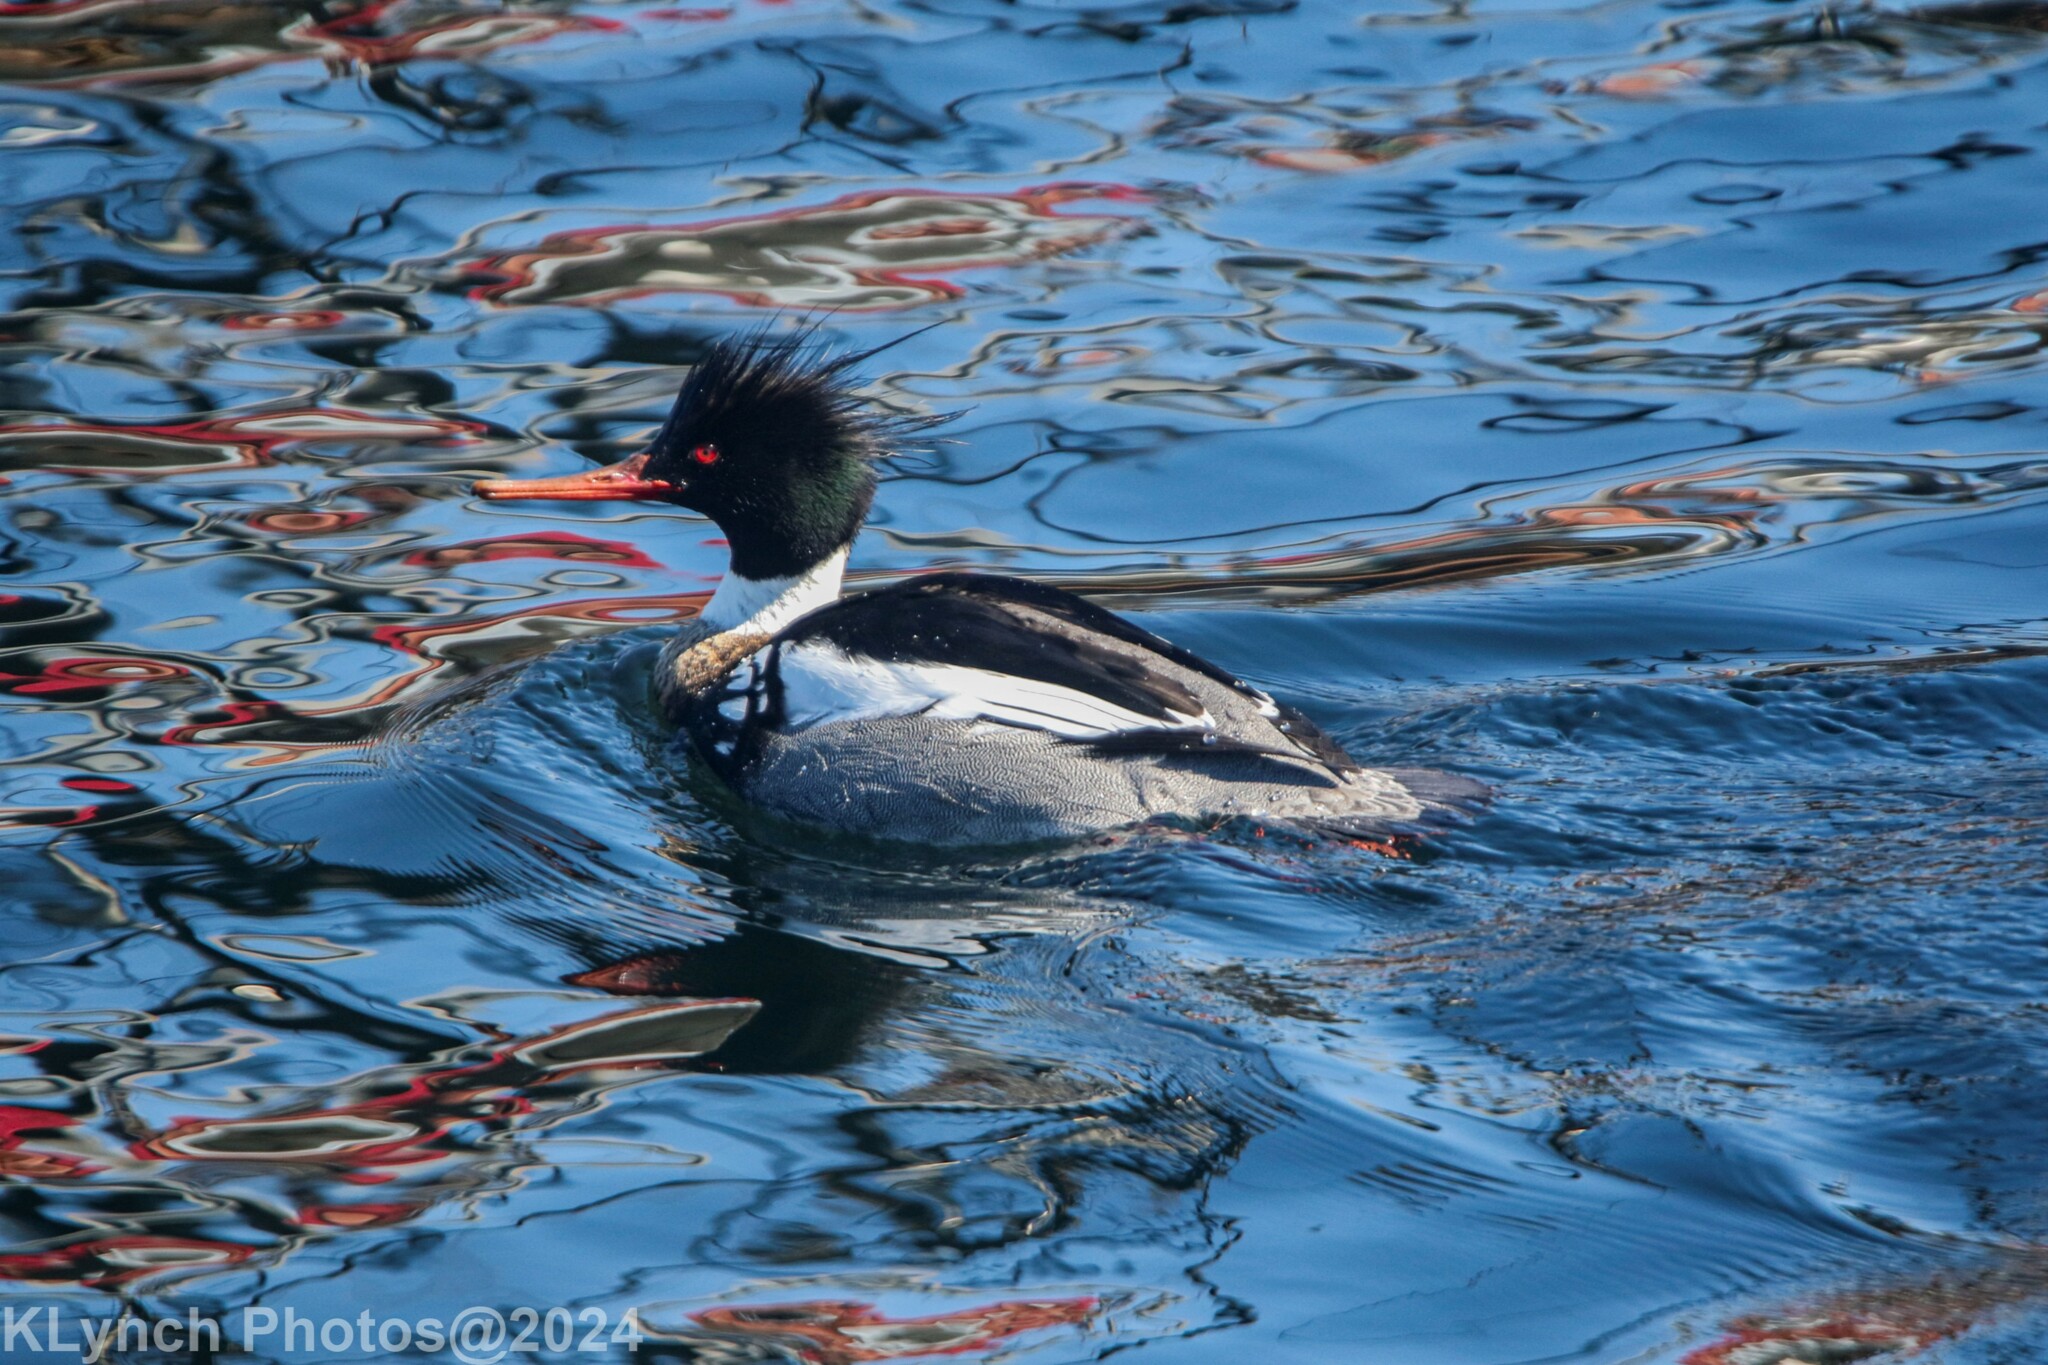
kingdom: Animalia
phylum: Chordata
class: Aves
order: Anseriformes
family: Anatidae
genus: Mergus
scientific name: Mergus serrator
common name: Red-breasted merganser
